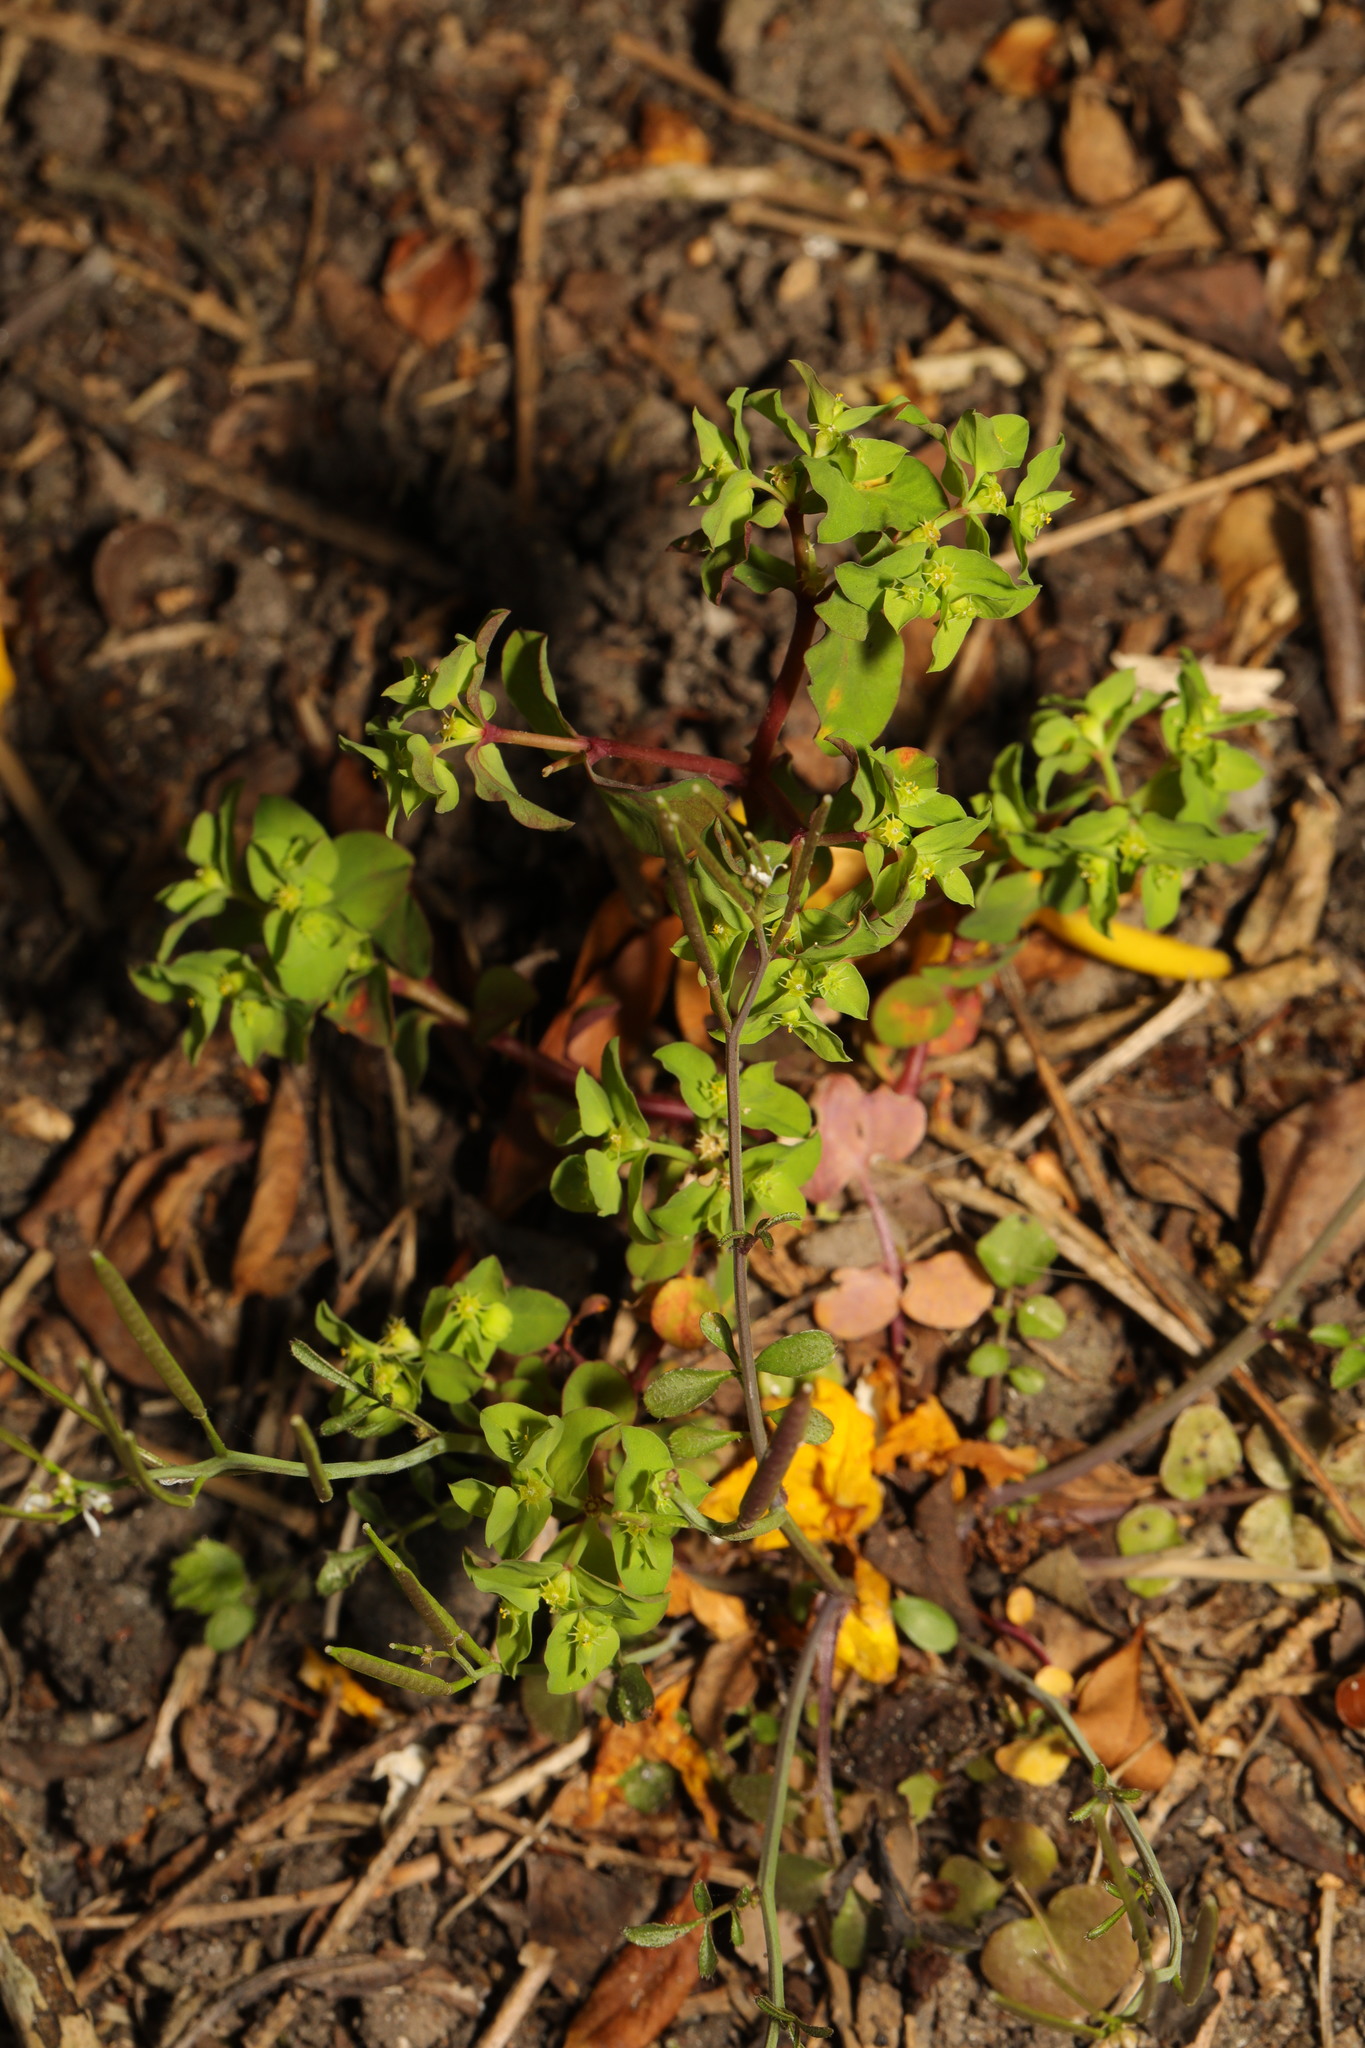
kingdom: Plantae
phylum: Tracheophyta
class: Magnoliopsida
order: Malpighiales
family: Euphorbiaceae
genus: Euphorbia
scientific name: Euphorbia peplus
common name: Petty spurge
